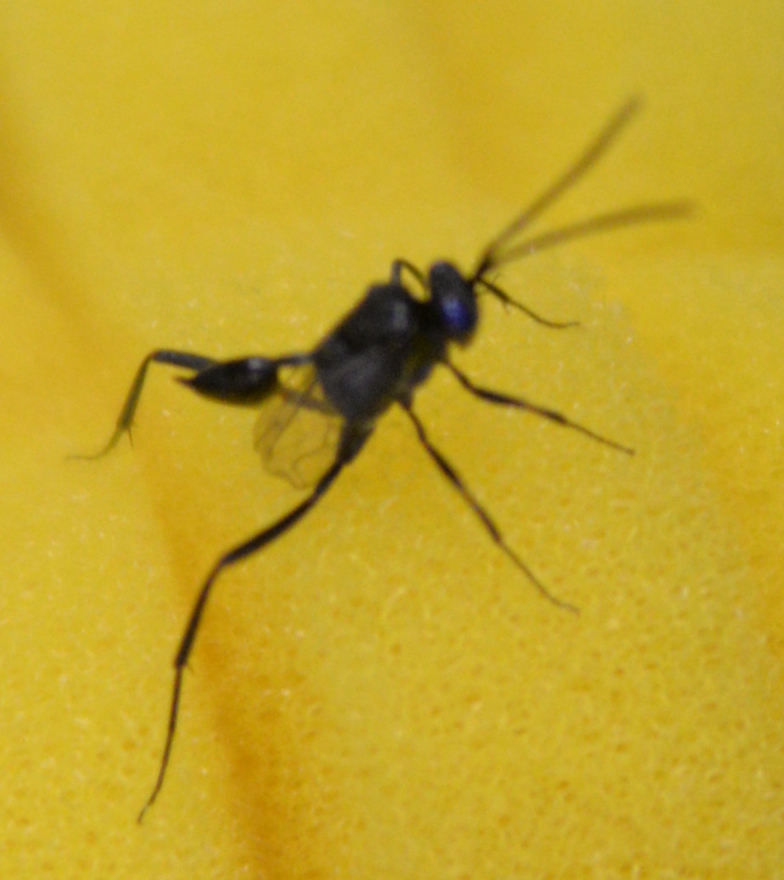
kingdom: Animalia
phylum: Arthropoda
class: Insecta
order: Hymenoptera
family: Evaniidae
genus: Evania
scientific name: Evania appendigaster
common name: Ensign wasp
